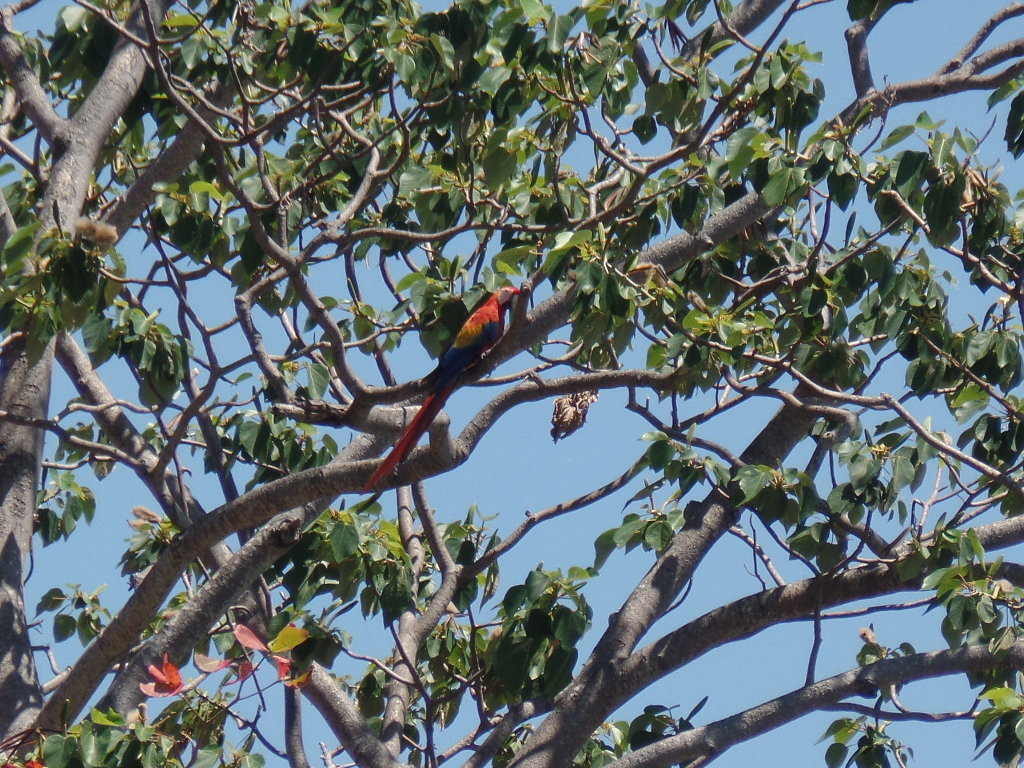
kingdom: Animalia
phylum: Chordata
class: Aves
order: Psittaciformes
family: Psittacidae
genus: Ara
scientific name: Ara macao
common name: Scarlet macaw
